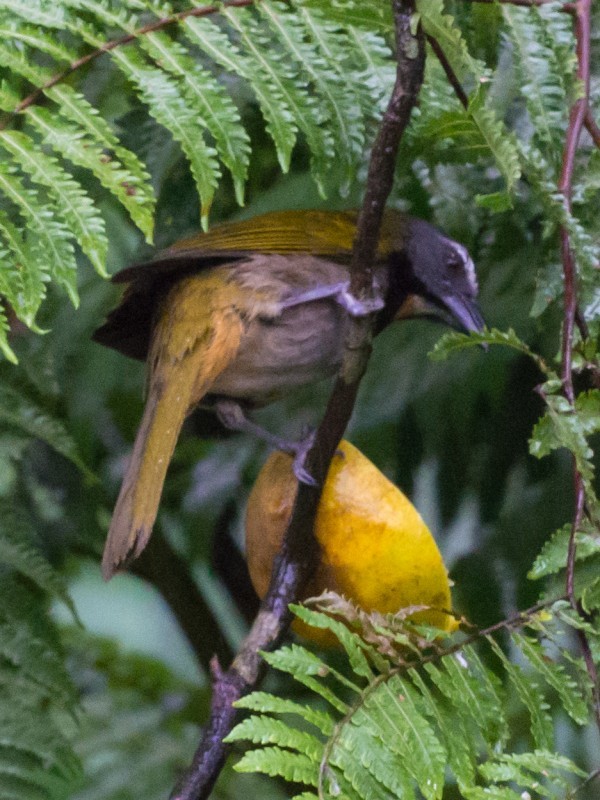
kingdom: Animalia
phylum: Chordata
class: Aves
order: Passeriformes
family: Thraupidae
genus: Saltator
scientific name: Saltator maximus
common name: Buff-throated saltator
